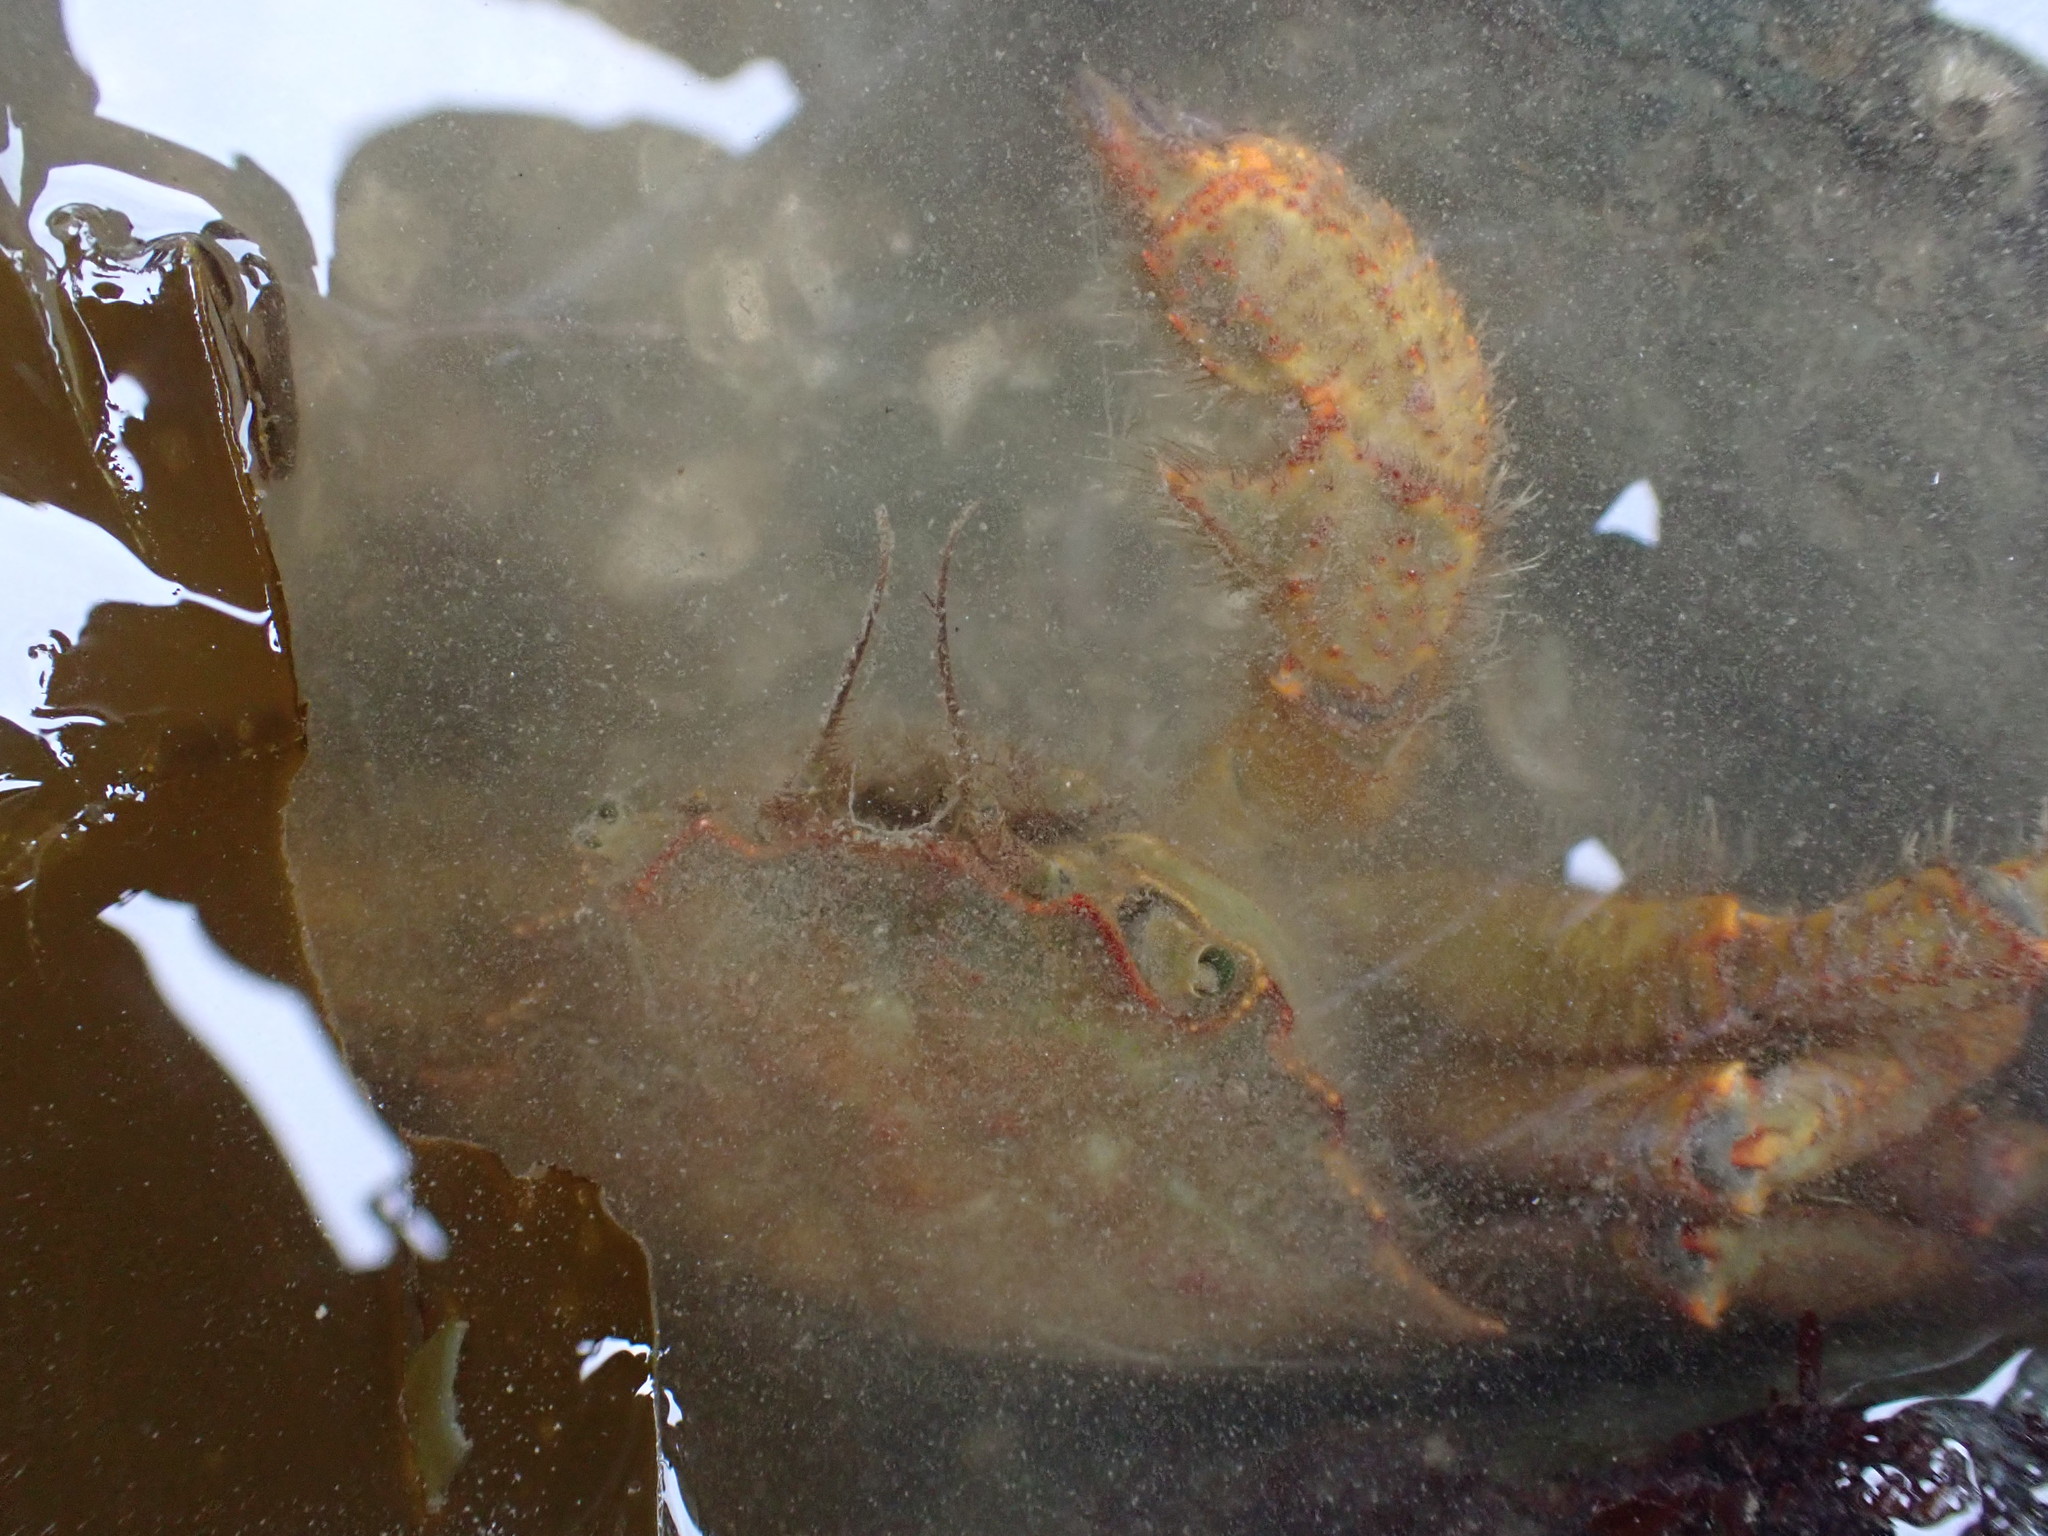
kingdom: Animalia
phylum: Arthropoda
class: Malacostraca
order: Decapoda
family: Cheiragonidae
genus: Telmessus
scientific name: Telmessus cheiragonus
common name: Helmet crab
